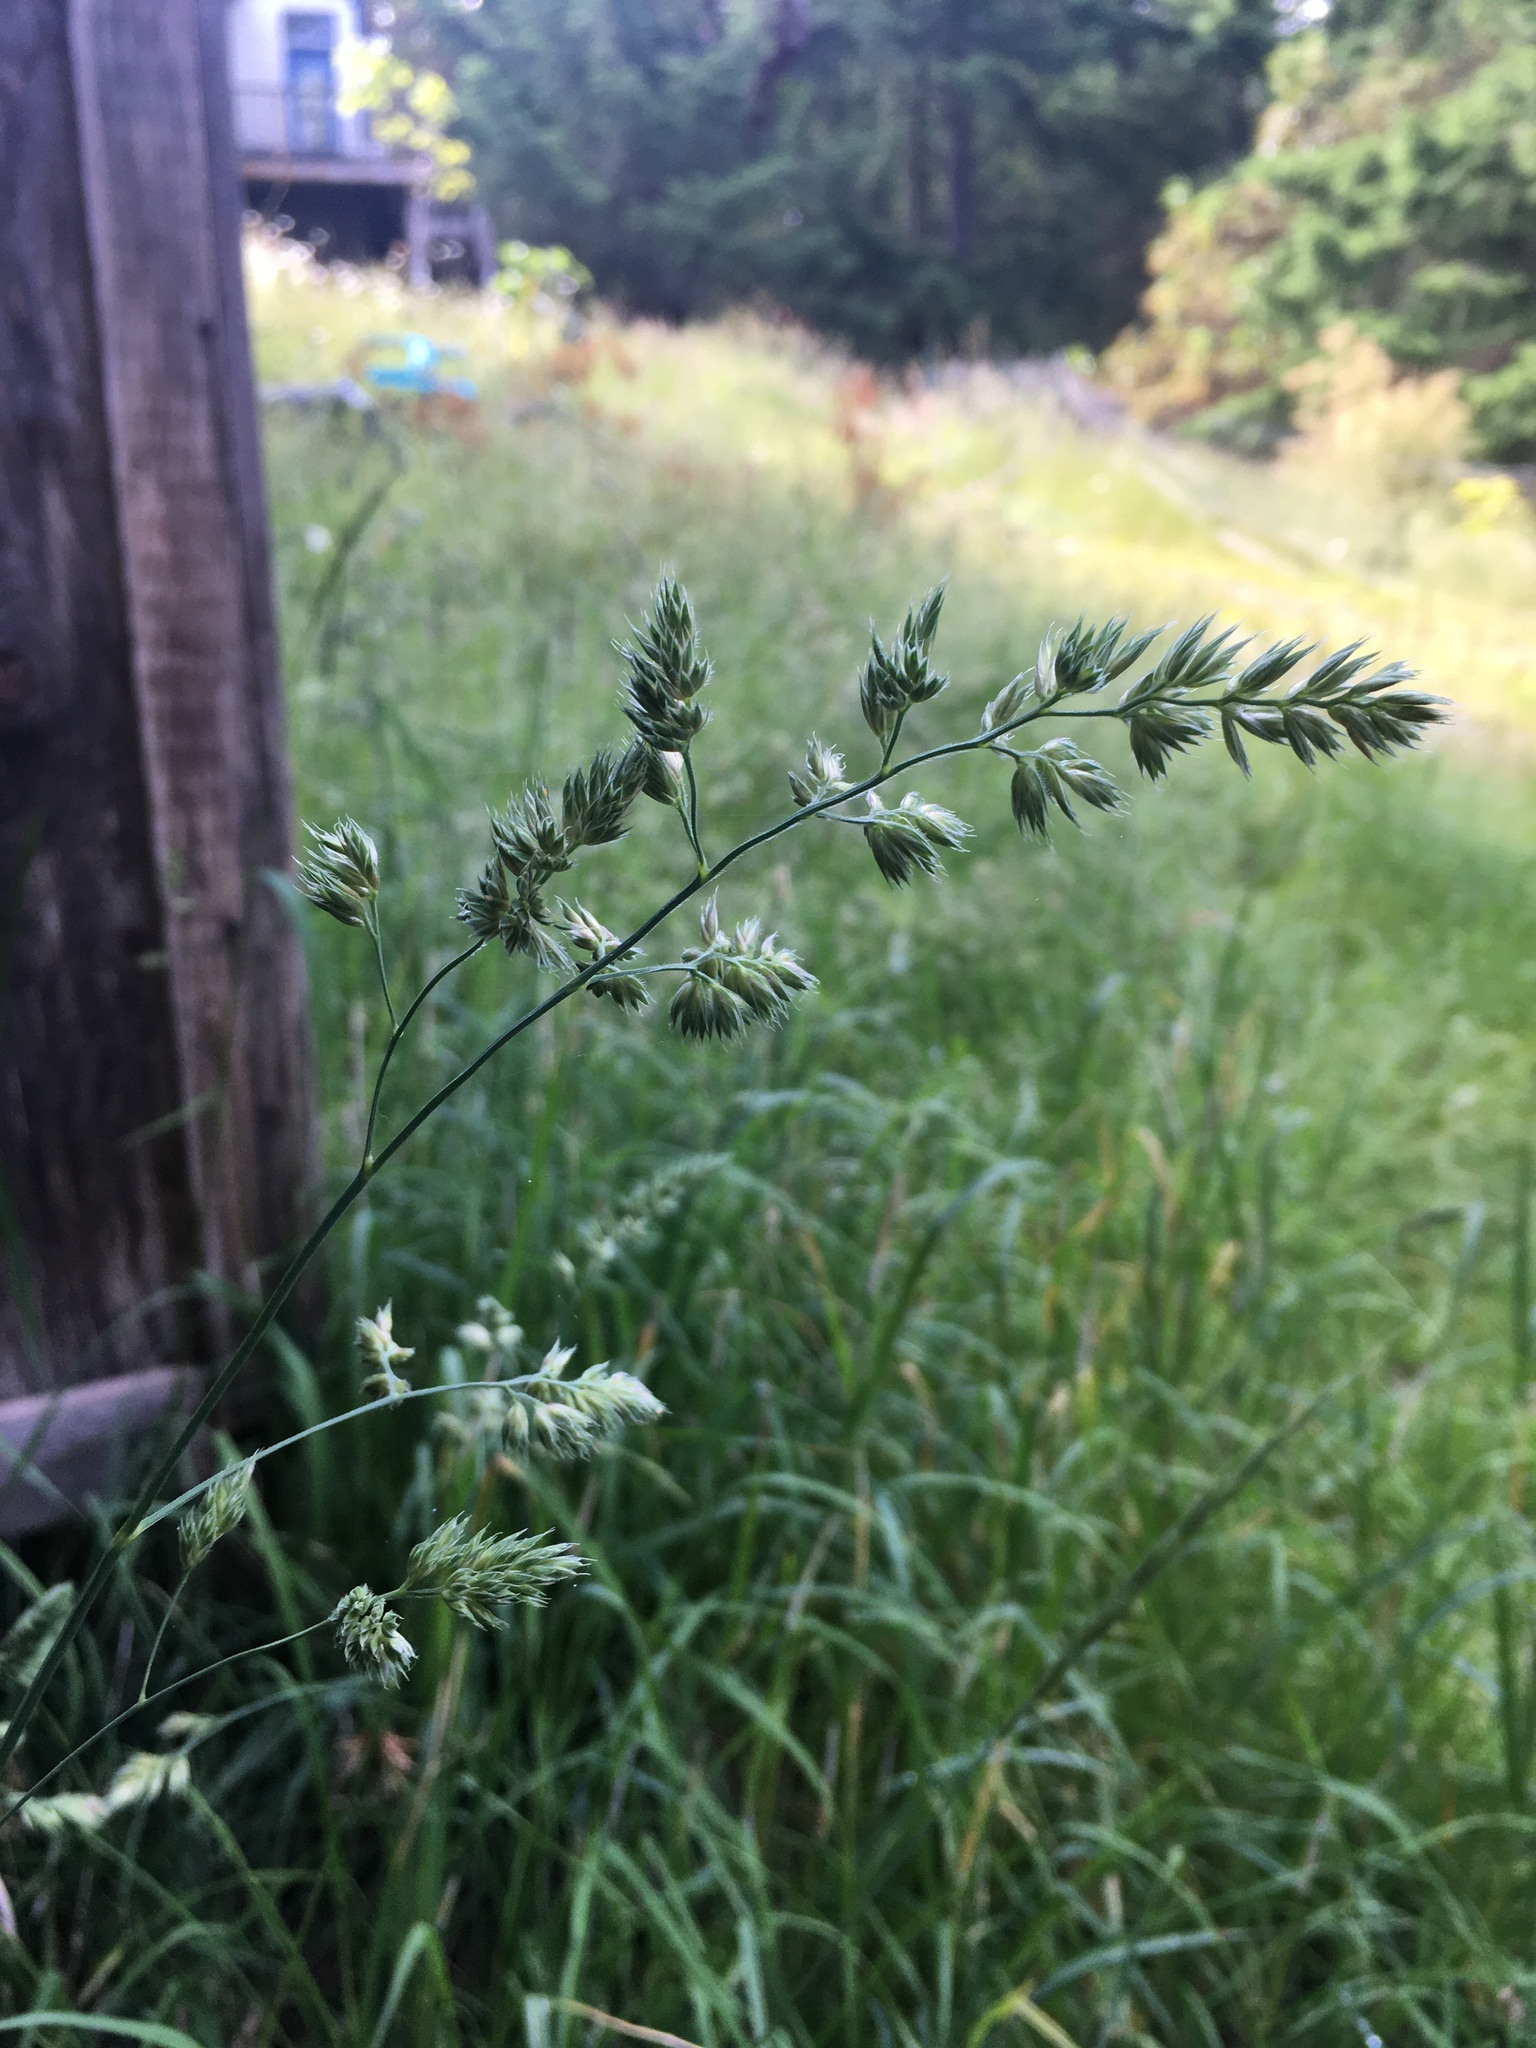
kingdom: Plantae
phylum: Tracheophyta
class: Liliopsida
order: Poales
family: Poaceae
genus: Dactylis
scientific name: Dactylis glomerata
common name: Orchardgrass
